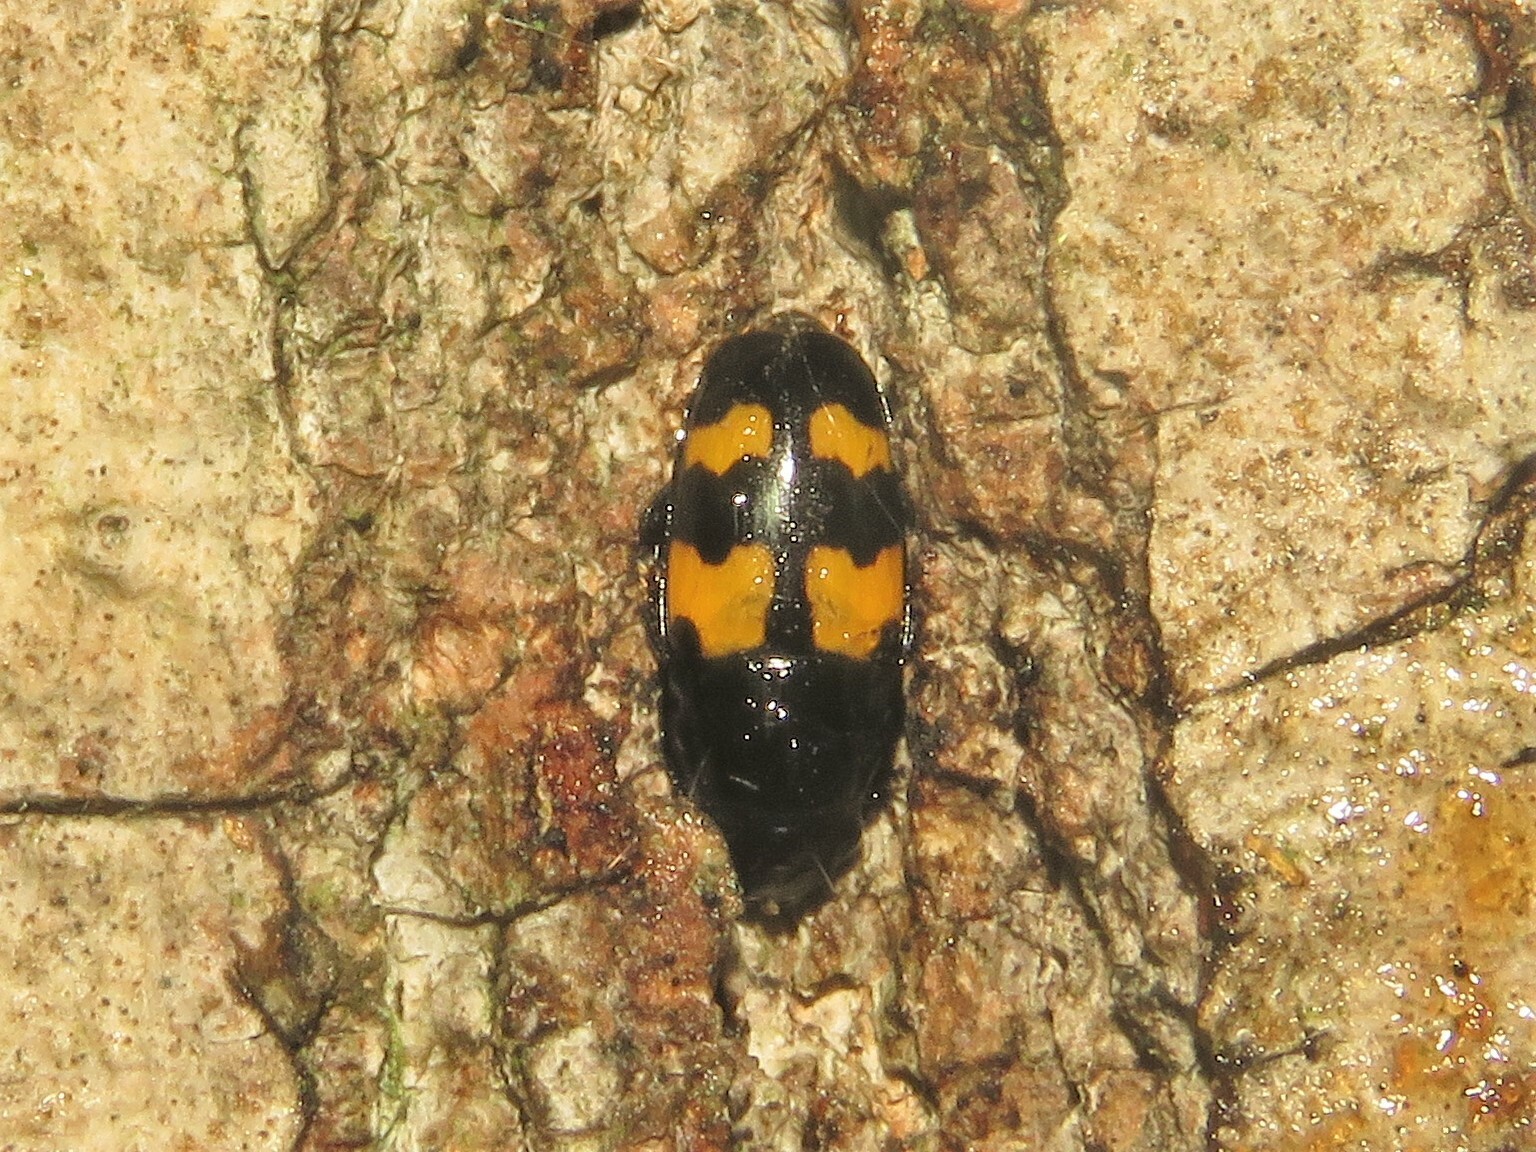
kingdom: Animalia
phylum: Arthropoda
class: Insecta
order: Coleoptera
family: Nitidulidae
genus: Glischrochilus
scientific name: Glischrochilus fasciatus
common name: Picnic beetle
